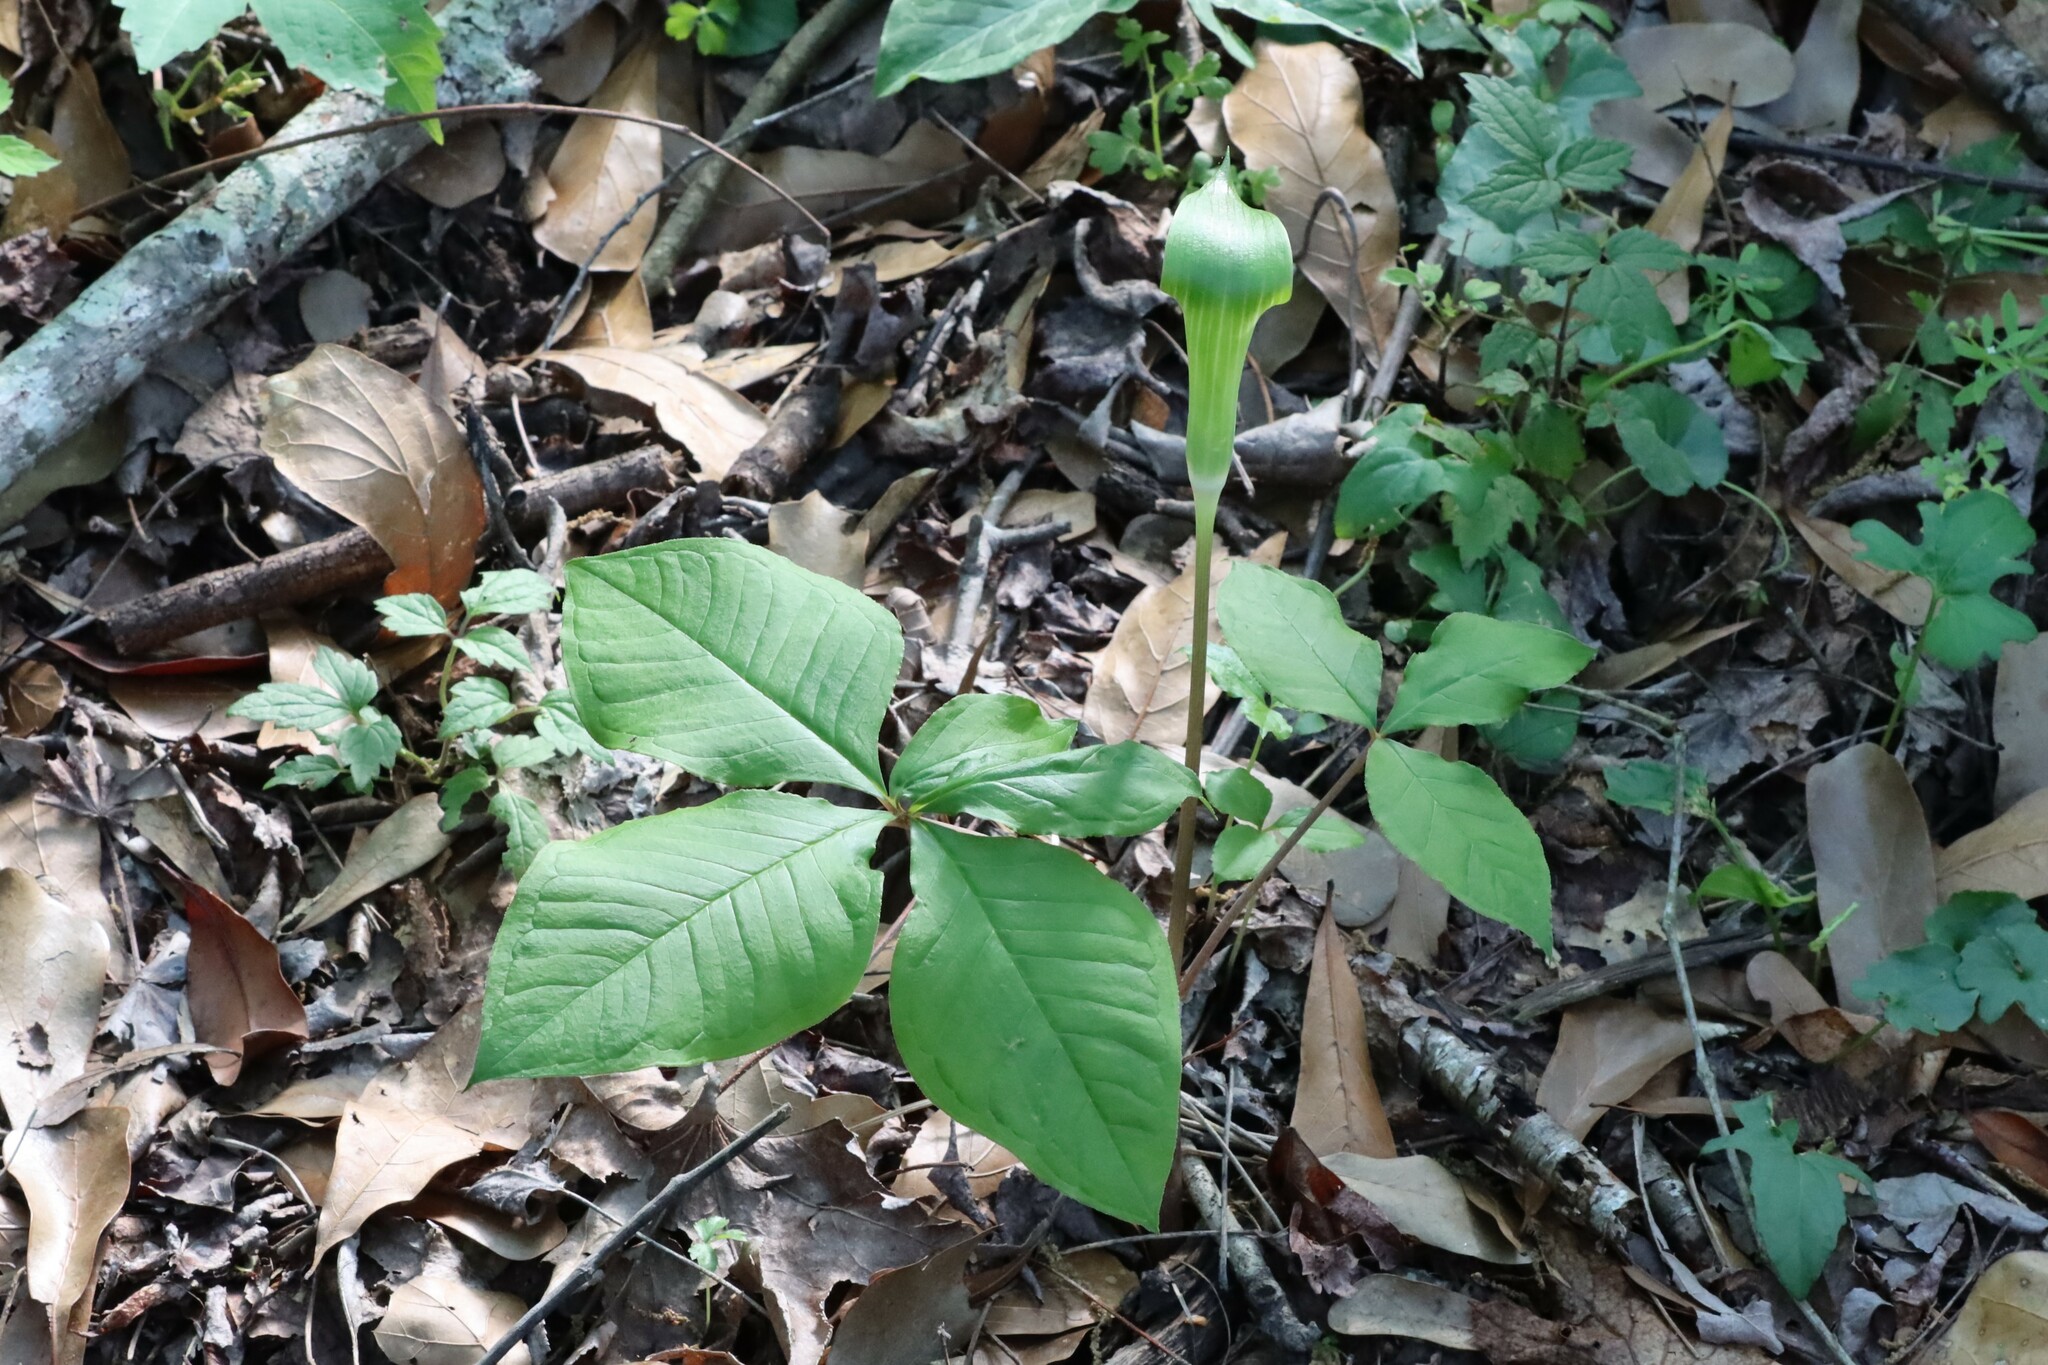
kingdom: Plantae
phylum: Tracheophyta
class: Liliopsida
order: Alismatales
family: Araceae
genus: Arisaema
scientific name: Arisaema quinatum
